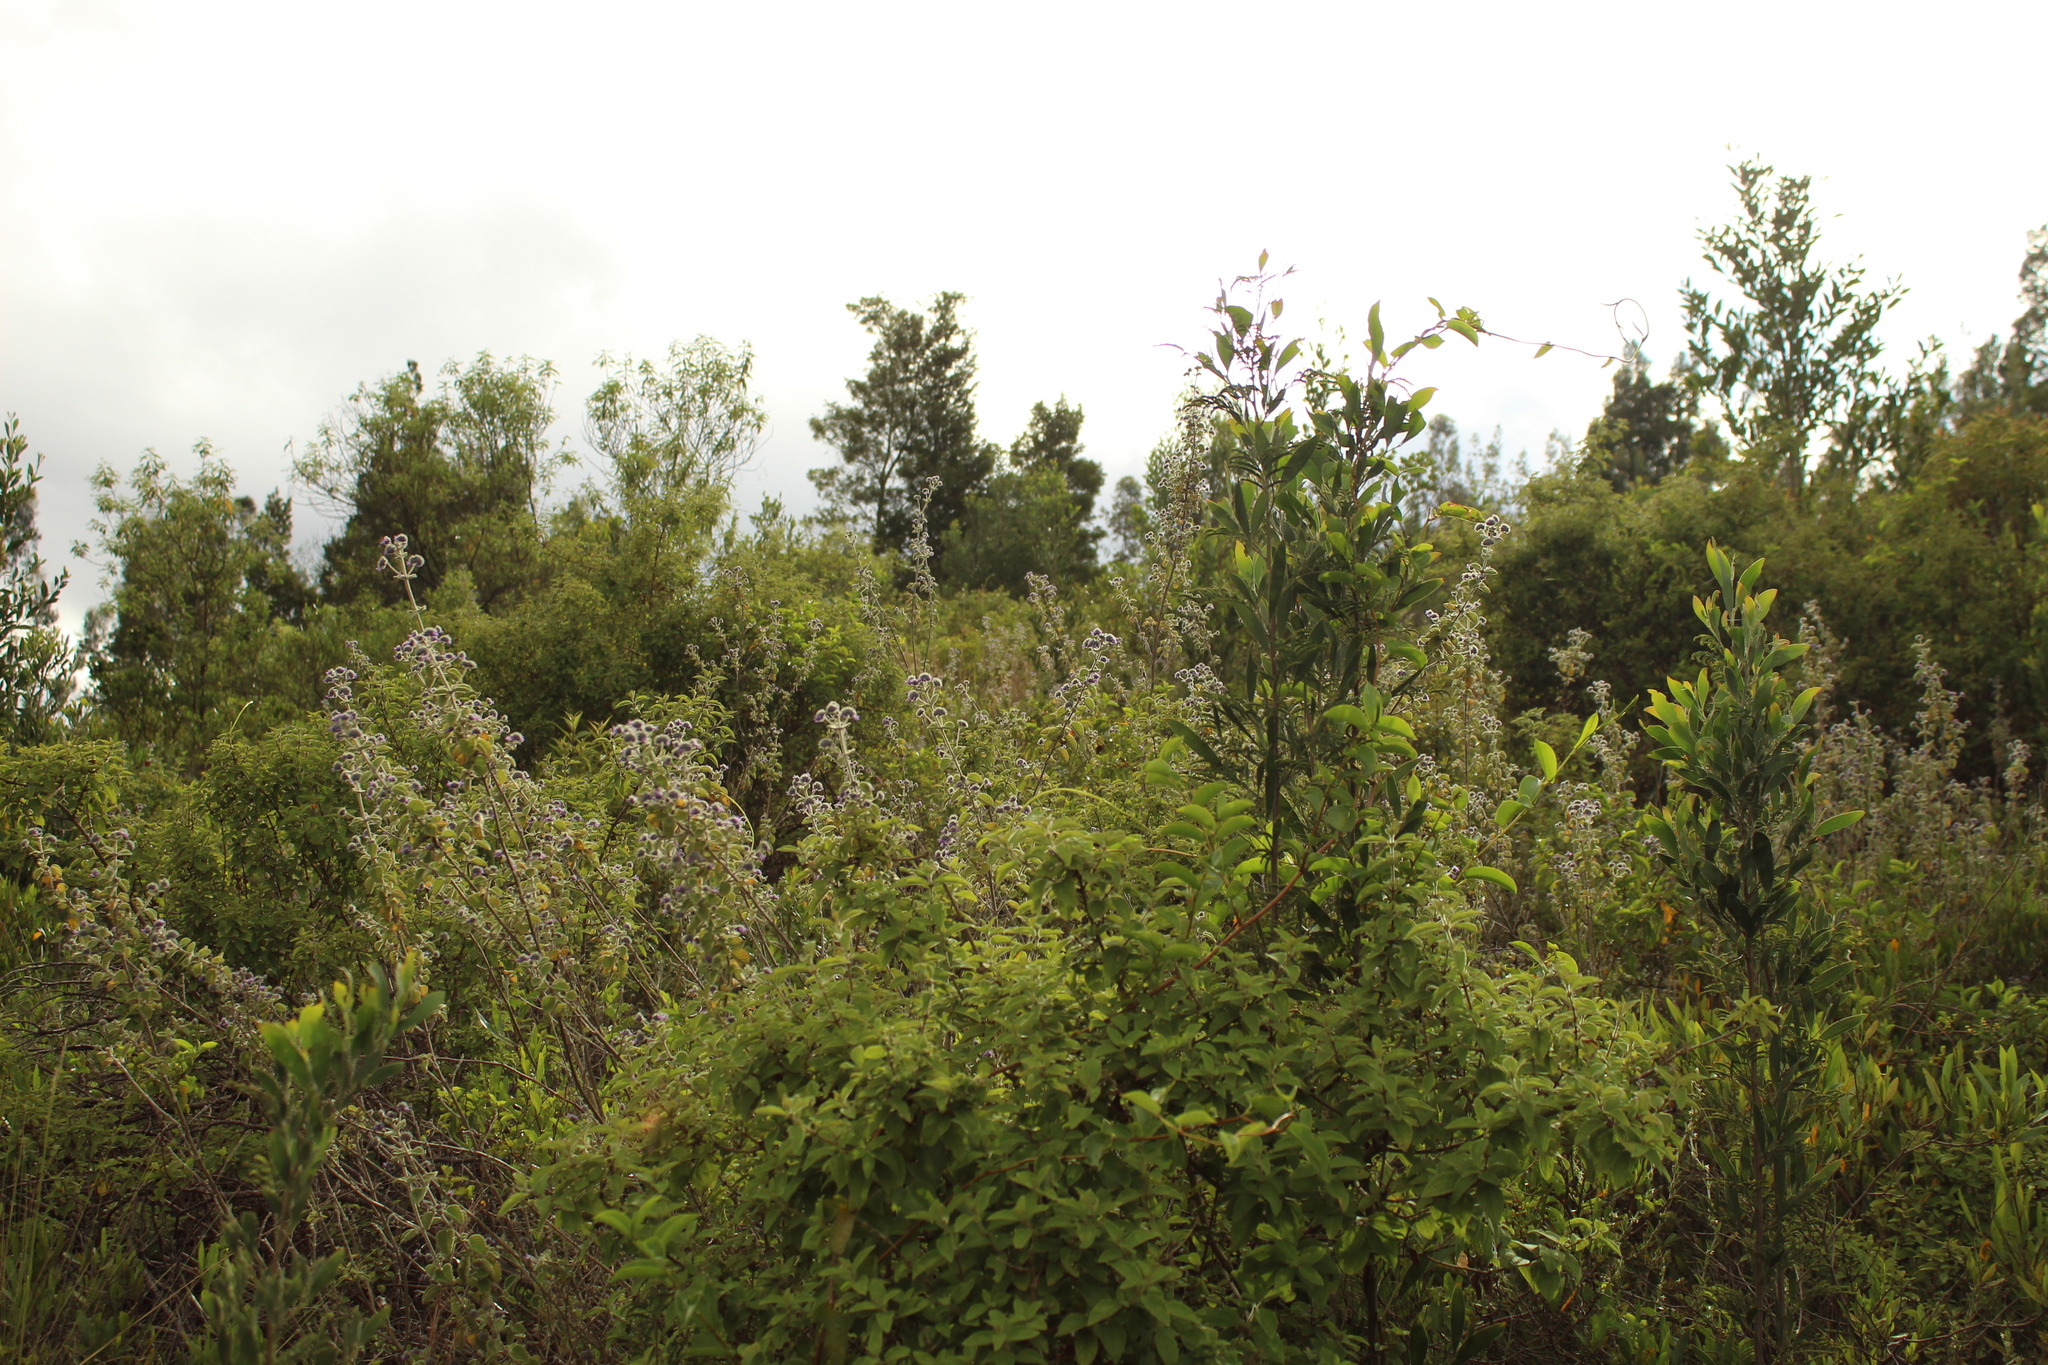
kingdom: Plantae
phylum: Tracheophyta
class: Magnoliopsida
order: Lamiales
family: Lamiaceae
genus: Mesosphaerum
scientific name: Mesosphaerum perbullatum
